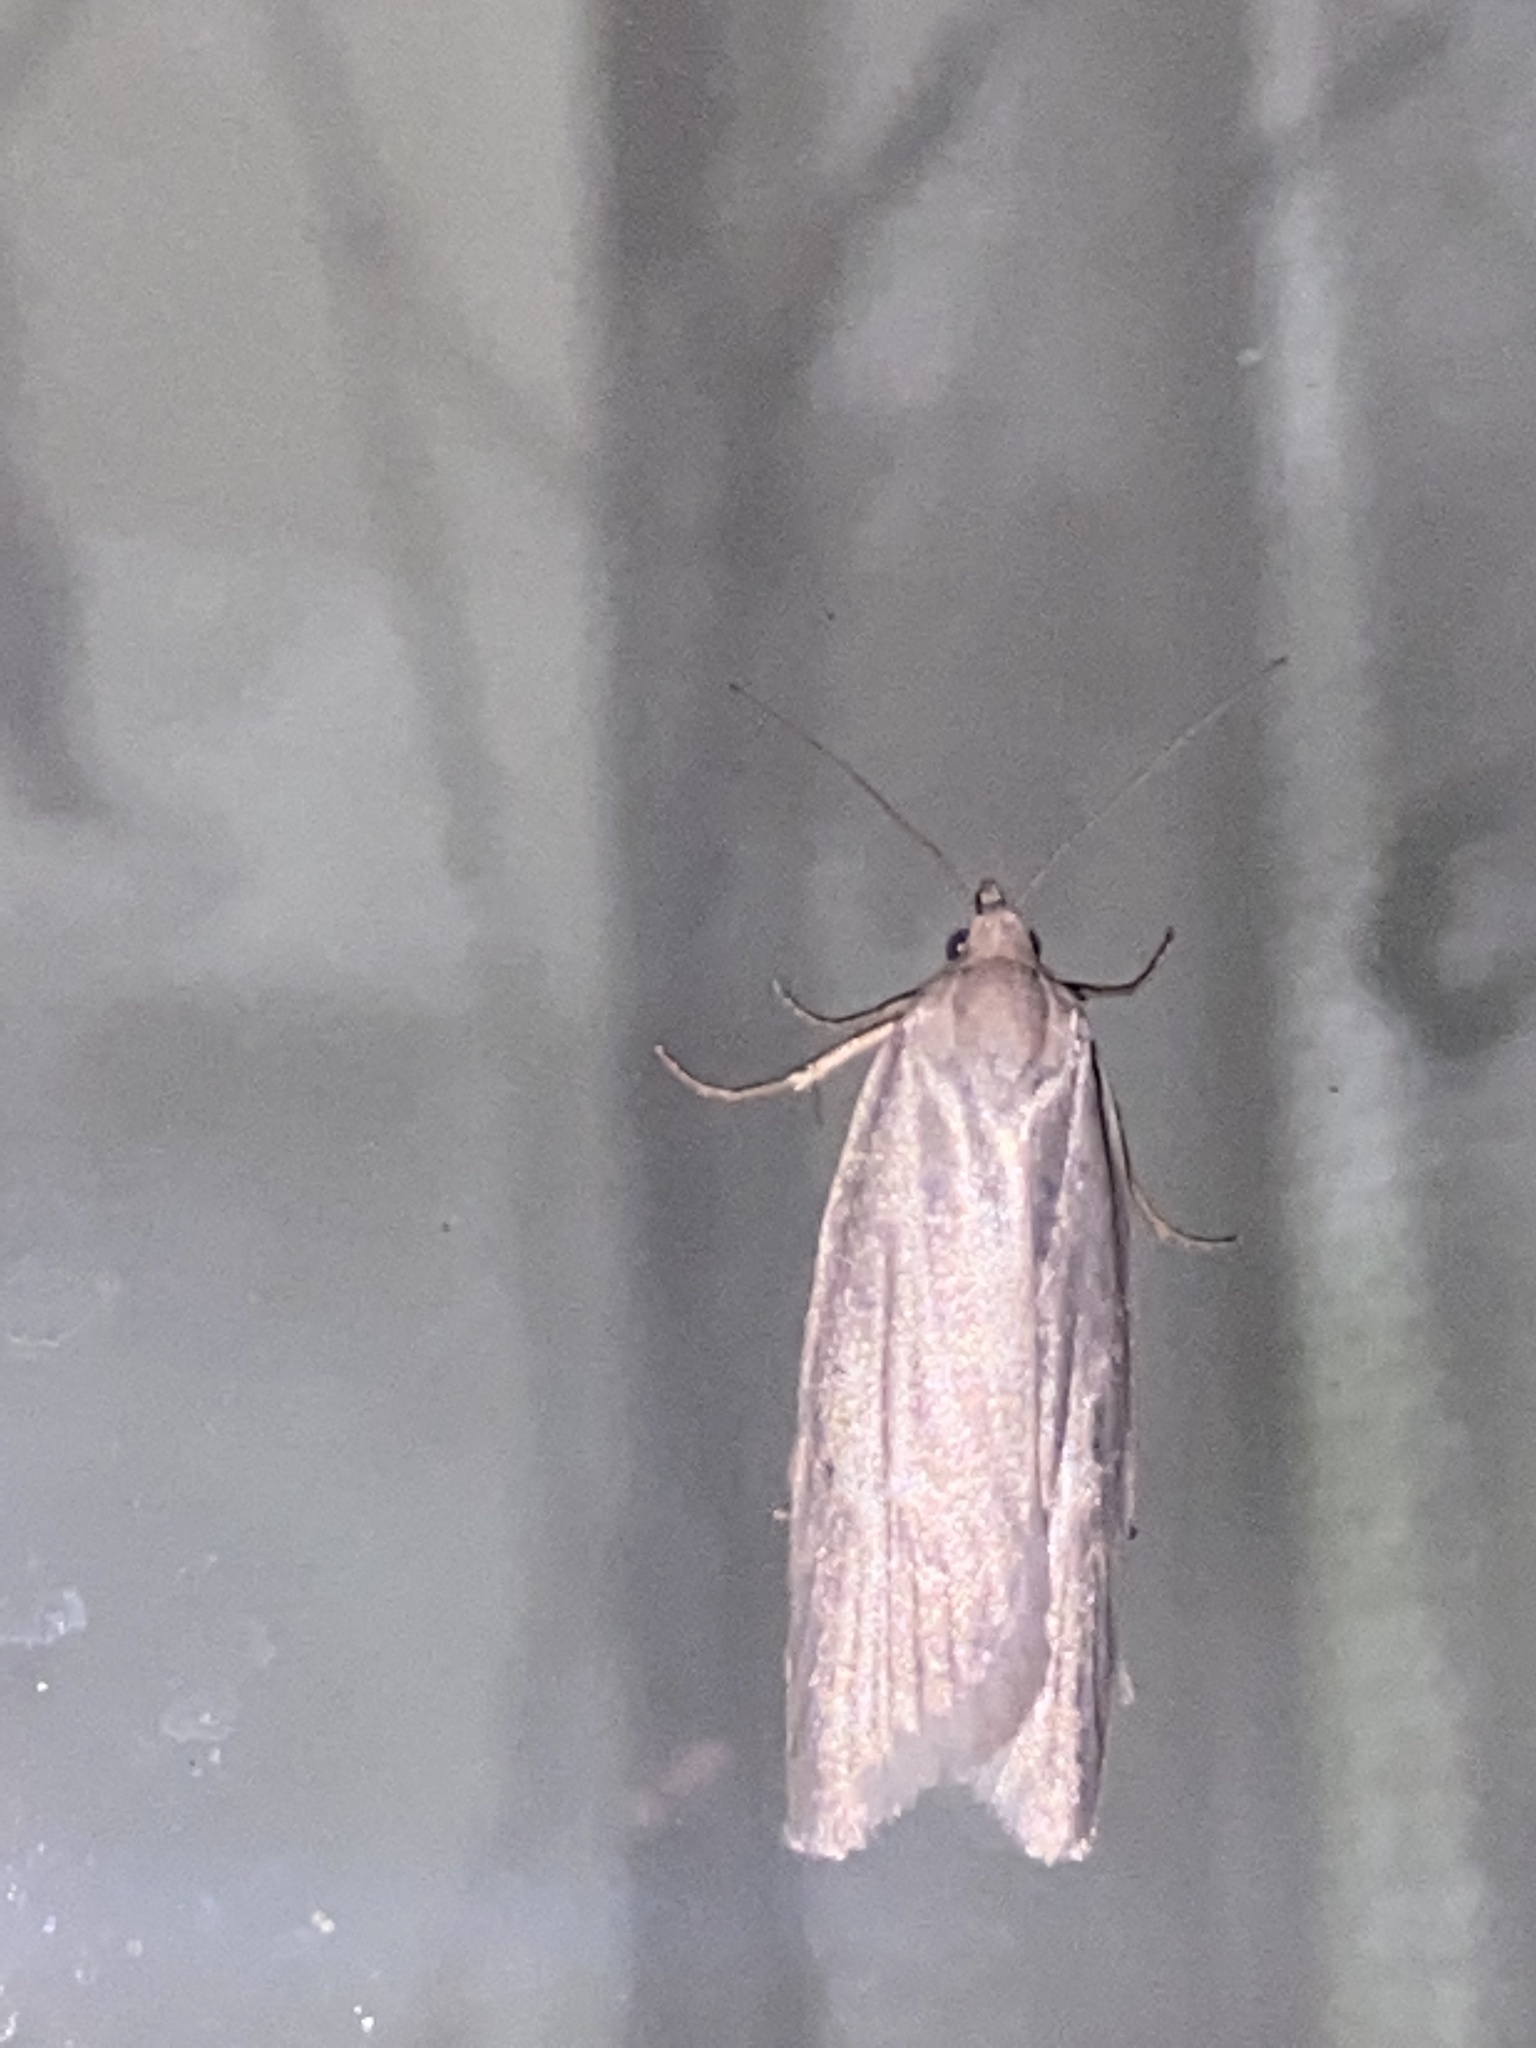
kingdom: Animalia
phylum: Arthropoda
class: Insecta
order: Lepidoptera
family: Tortricidae
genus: Eana
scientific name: Eana argentana
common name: Silver shade
